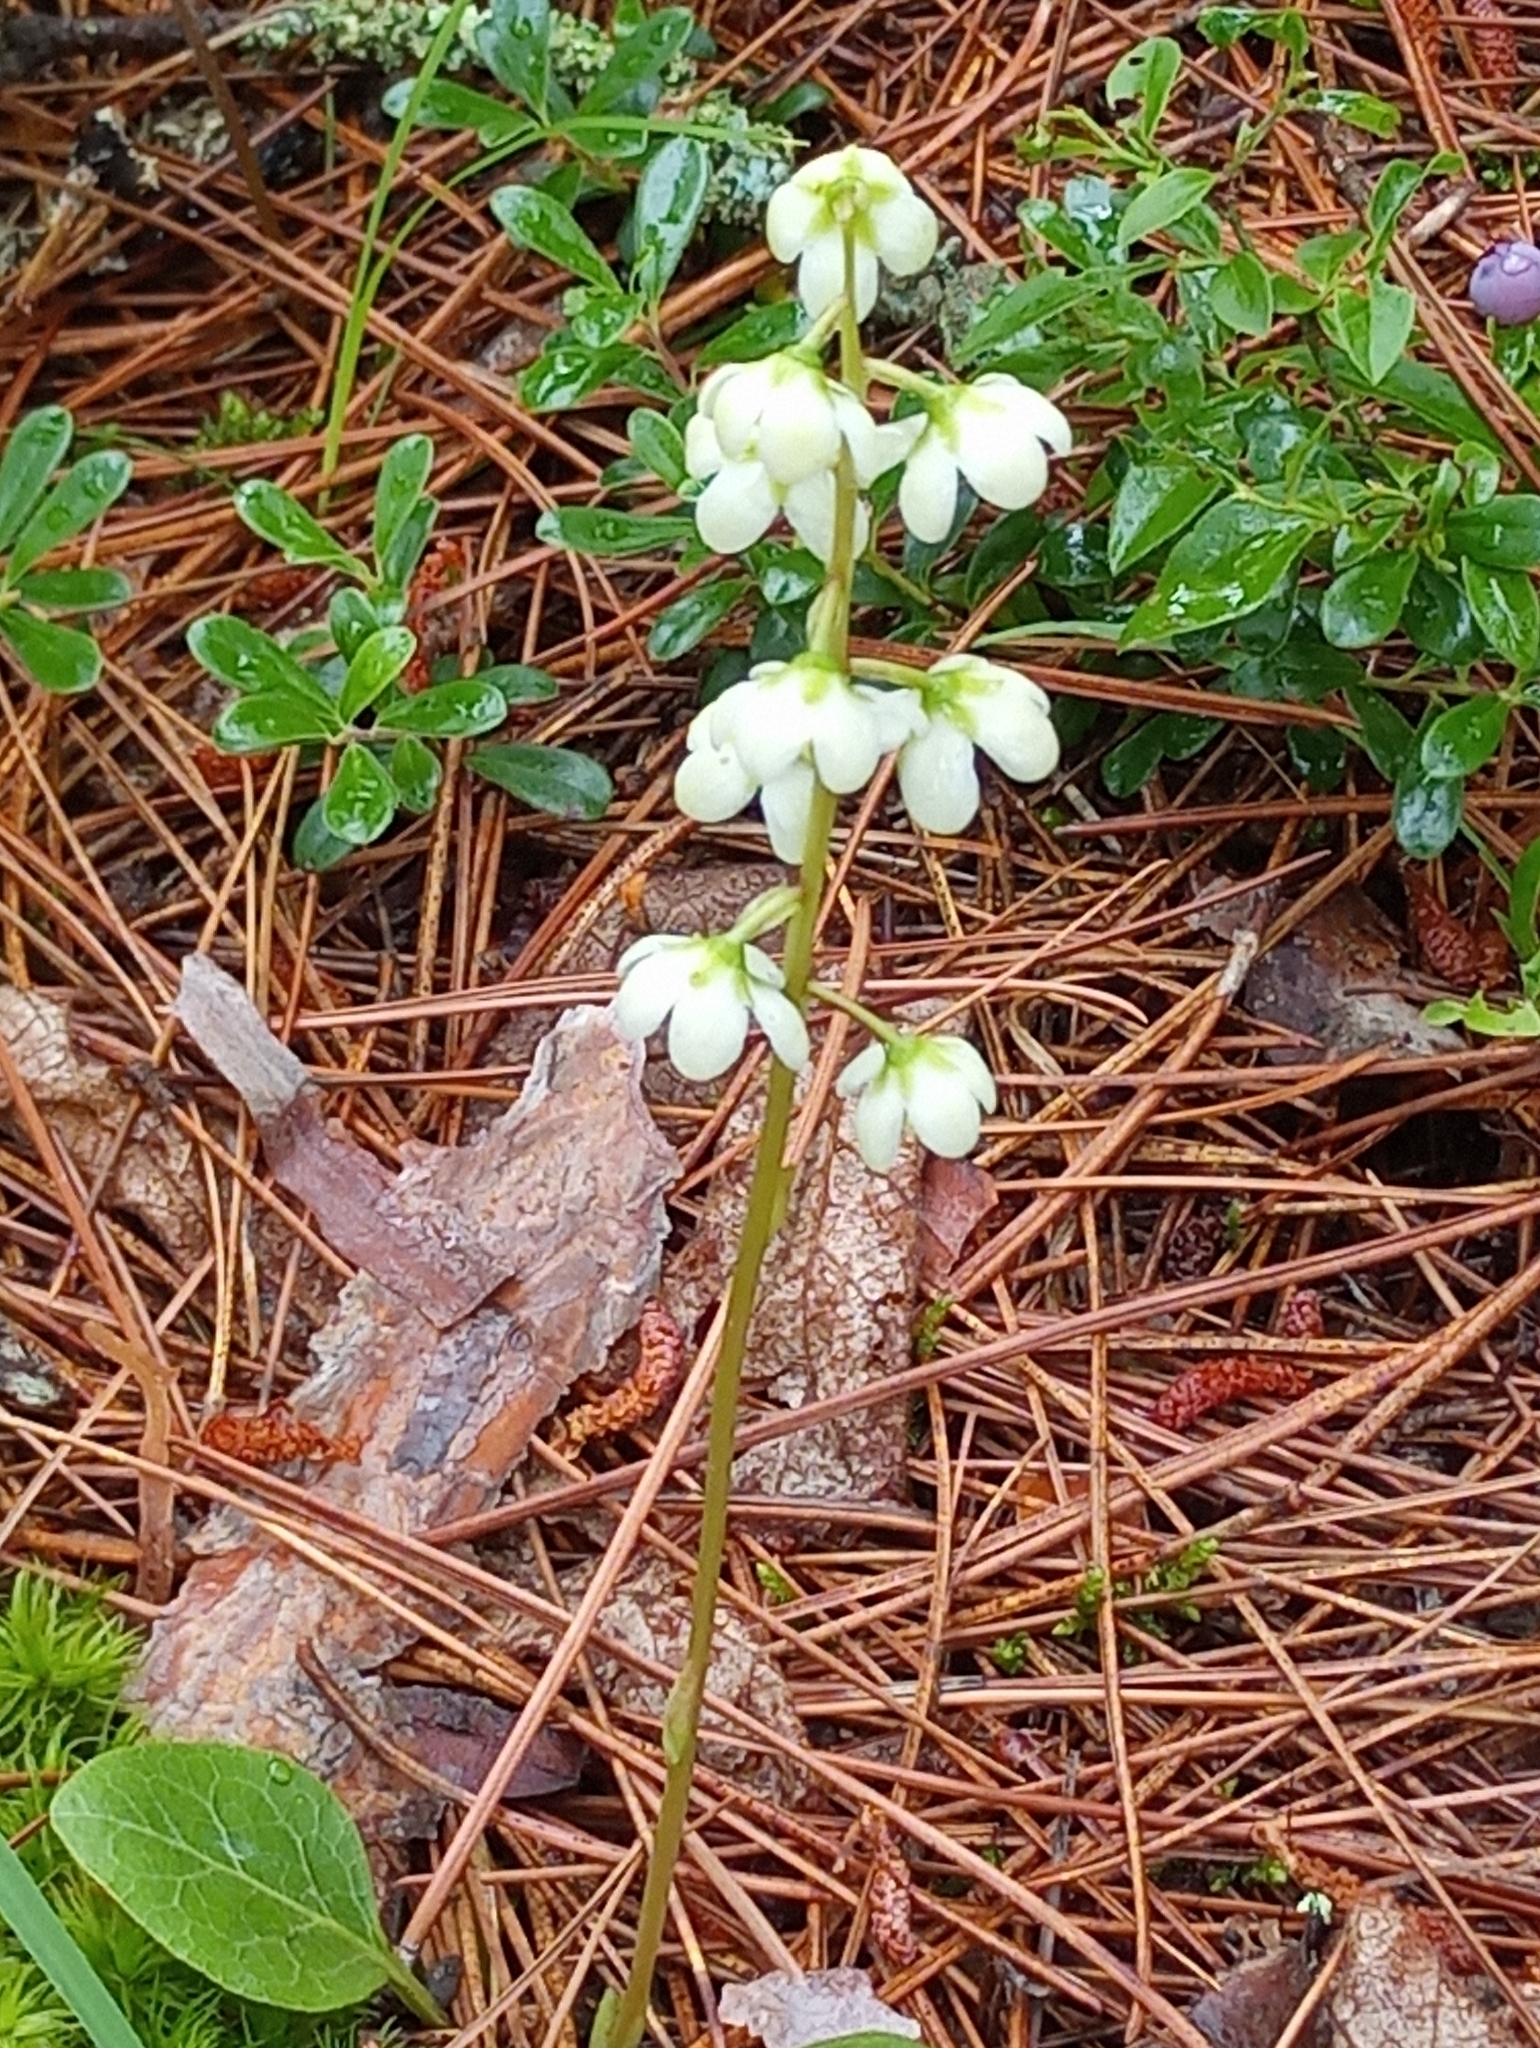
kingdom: Plantae
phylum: Tracheophyta
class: Magnoliopsida
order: Ericales
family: Ericaceae
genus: Pyrola
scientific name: Pyrola americana
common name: American wintergreen
